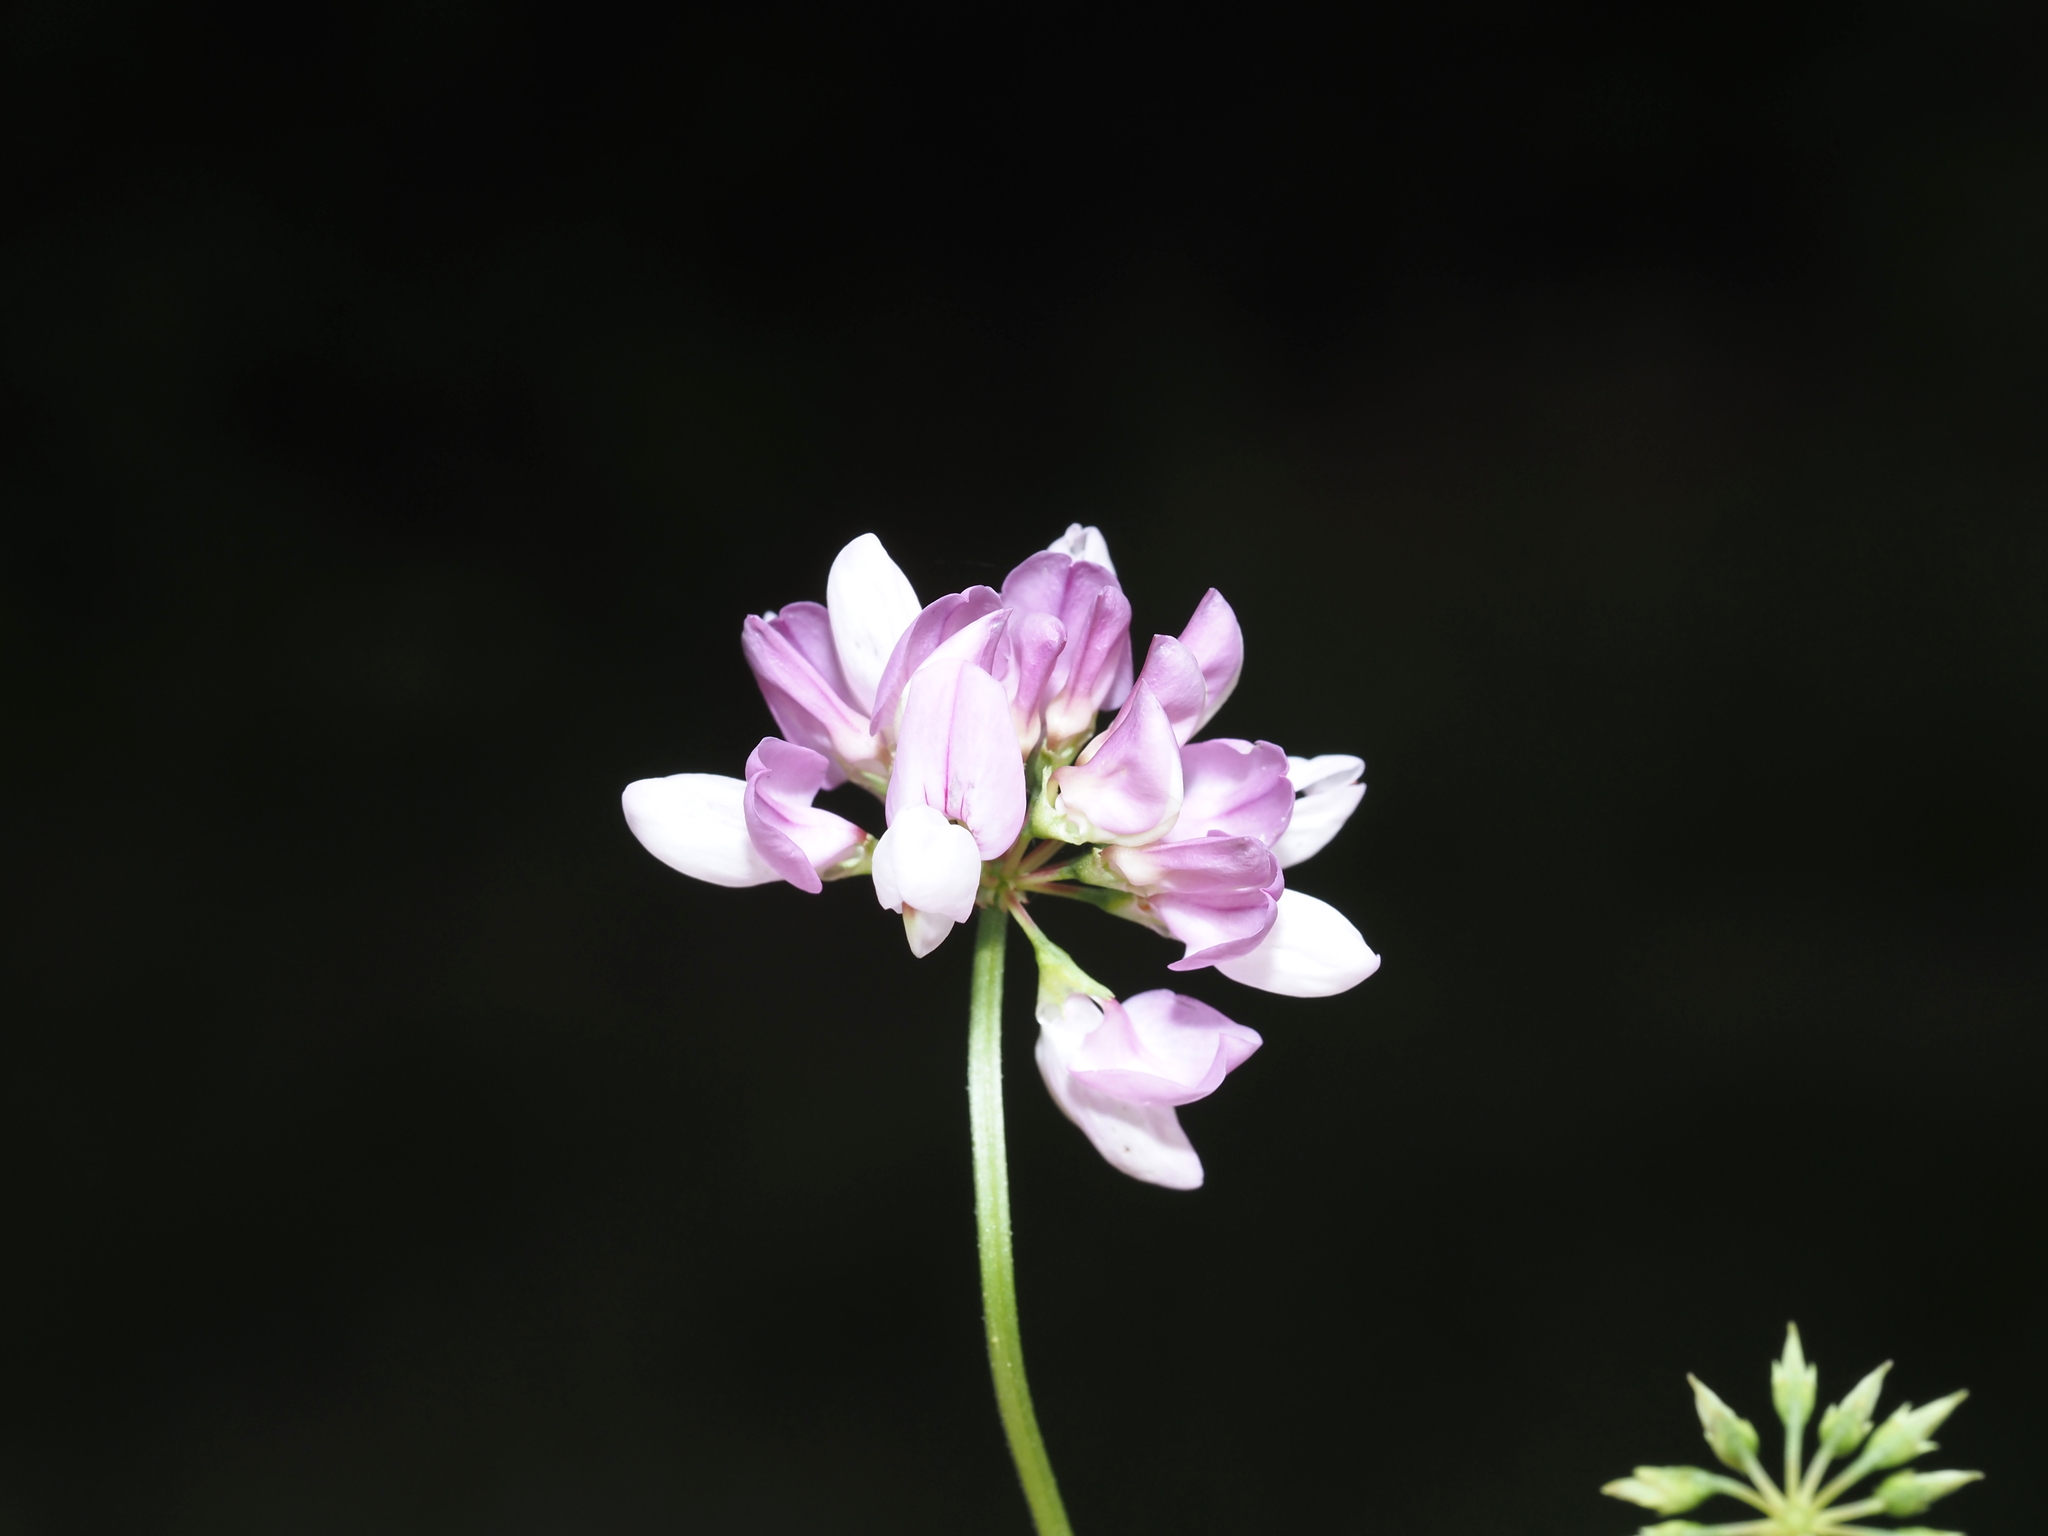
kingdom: Plantae
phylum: Tracheophyta
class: Magnoliopsida
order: Fabales
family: Fabaceae
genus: Coronilla
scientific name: Coronilla varia
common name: Crownvetch
